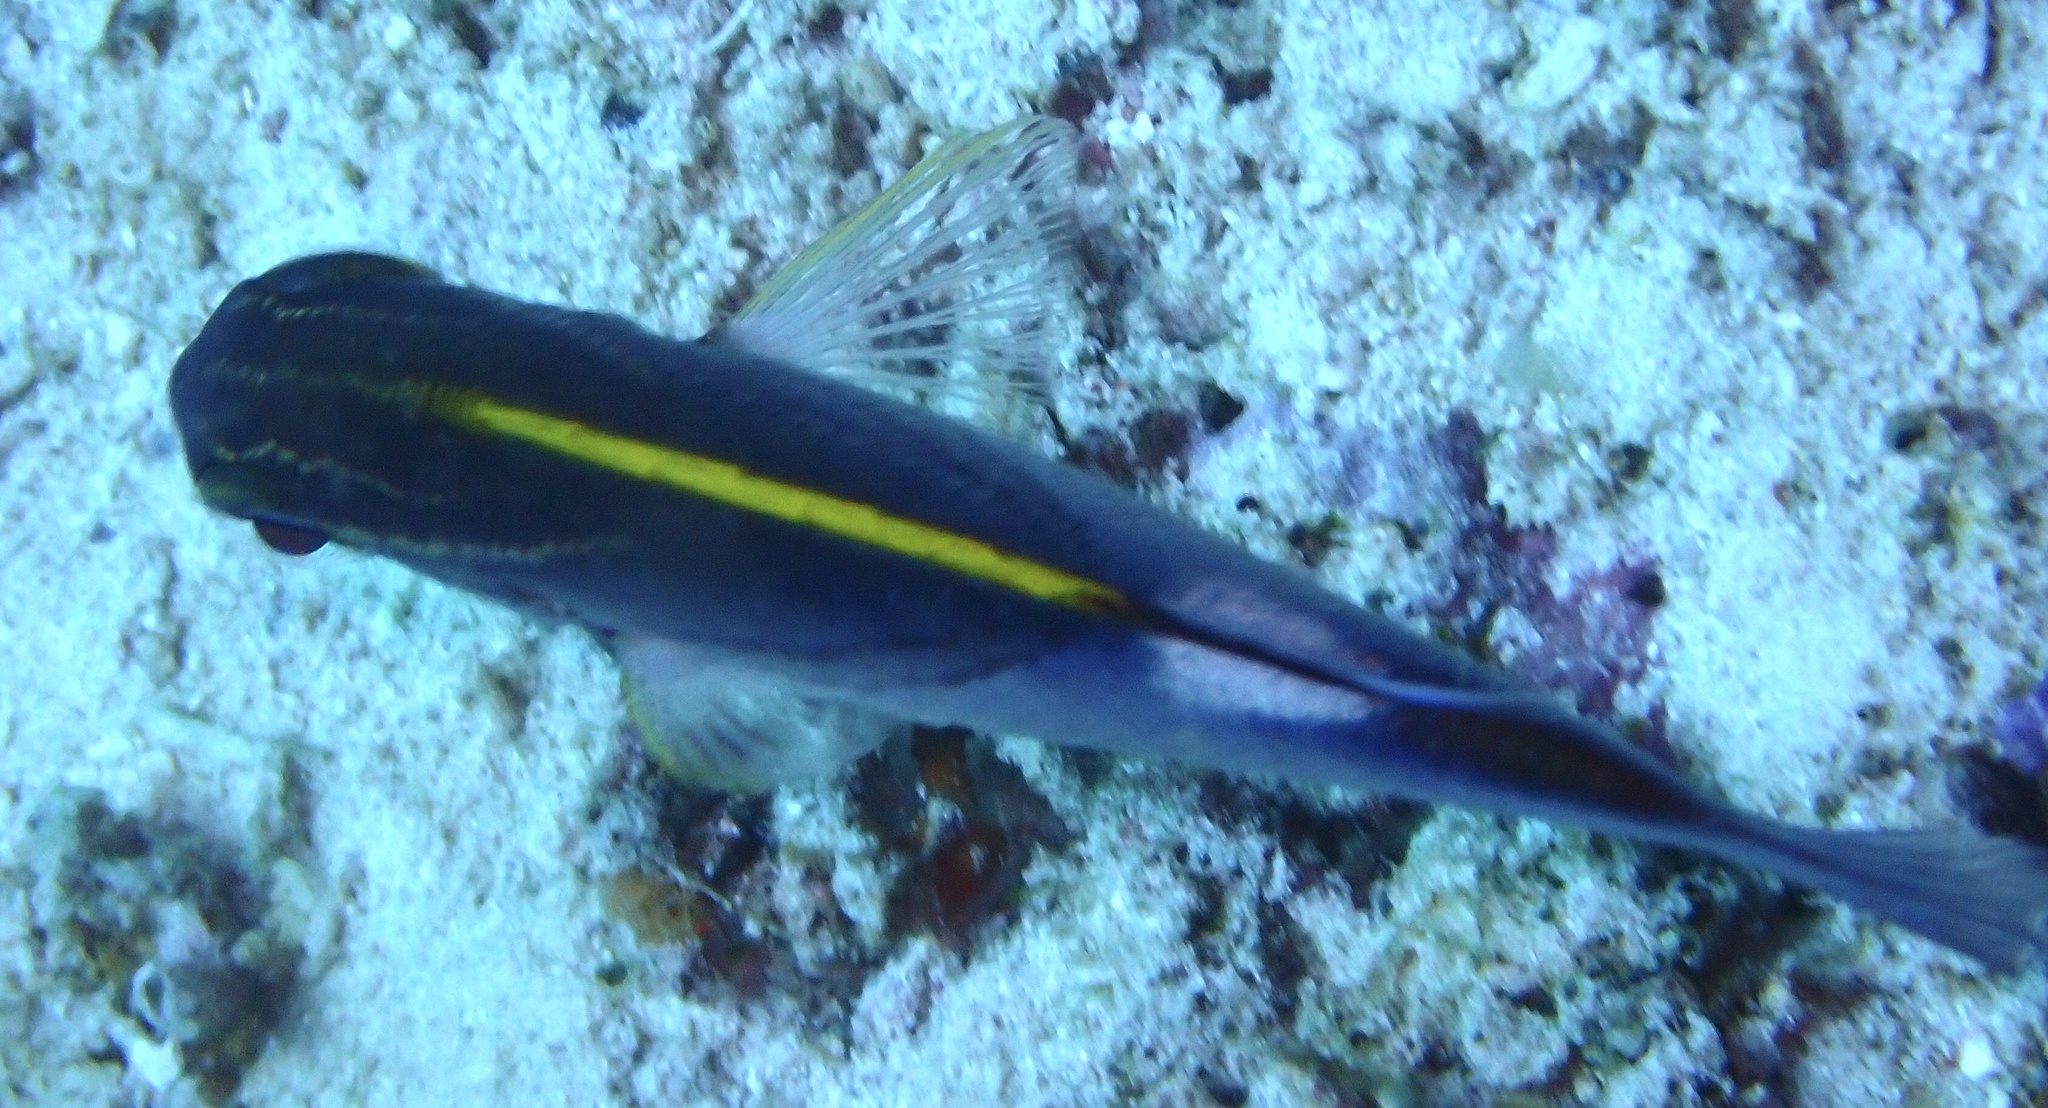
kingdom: Animalia
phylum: Chordata
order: Perciformes
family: Nemipteridae
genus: Scolopsis
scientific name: Scolopsis bilineata
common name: Two-lined monocle bream
